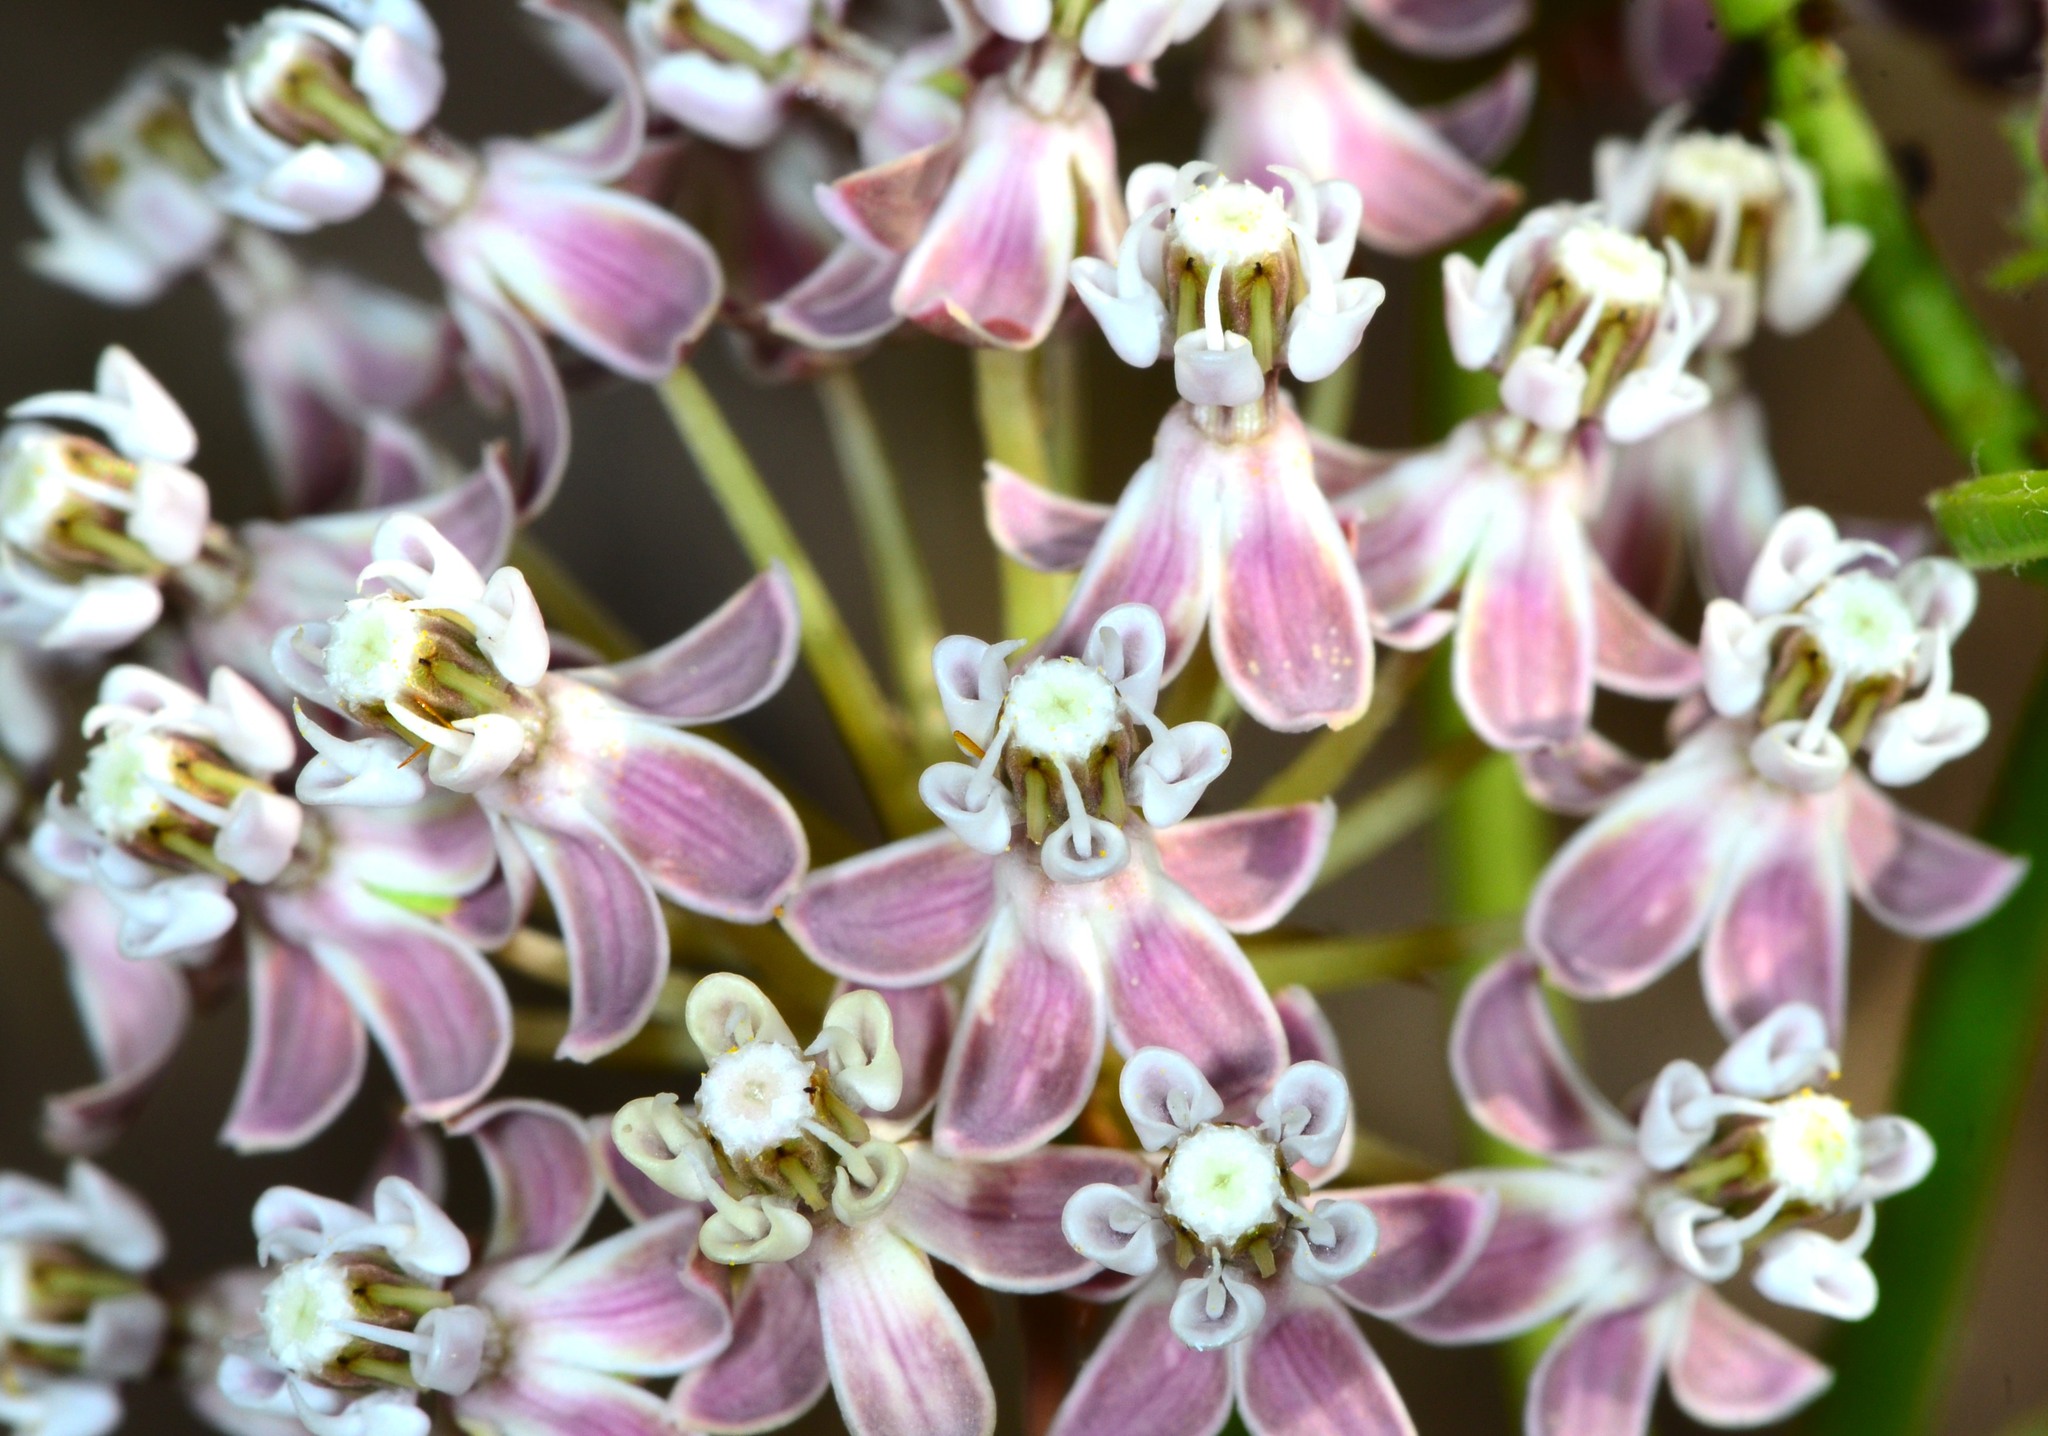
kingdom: Plantae
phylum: Tracheophyta
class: Magnoliopsida
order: Gentianales
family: Apocynaceae
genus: Asclepias
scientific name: Asclepias fascicularis
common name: Mexican milkweed
